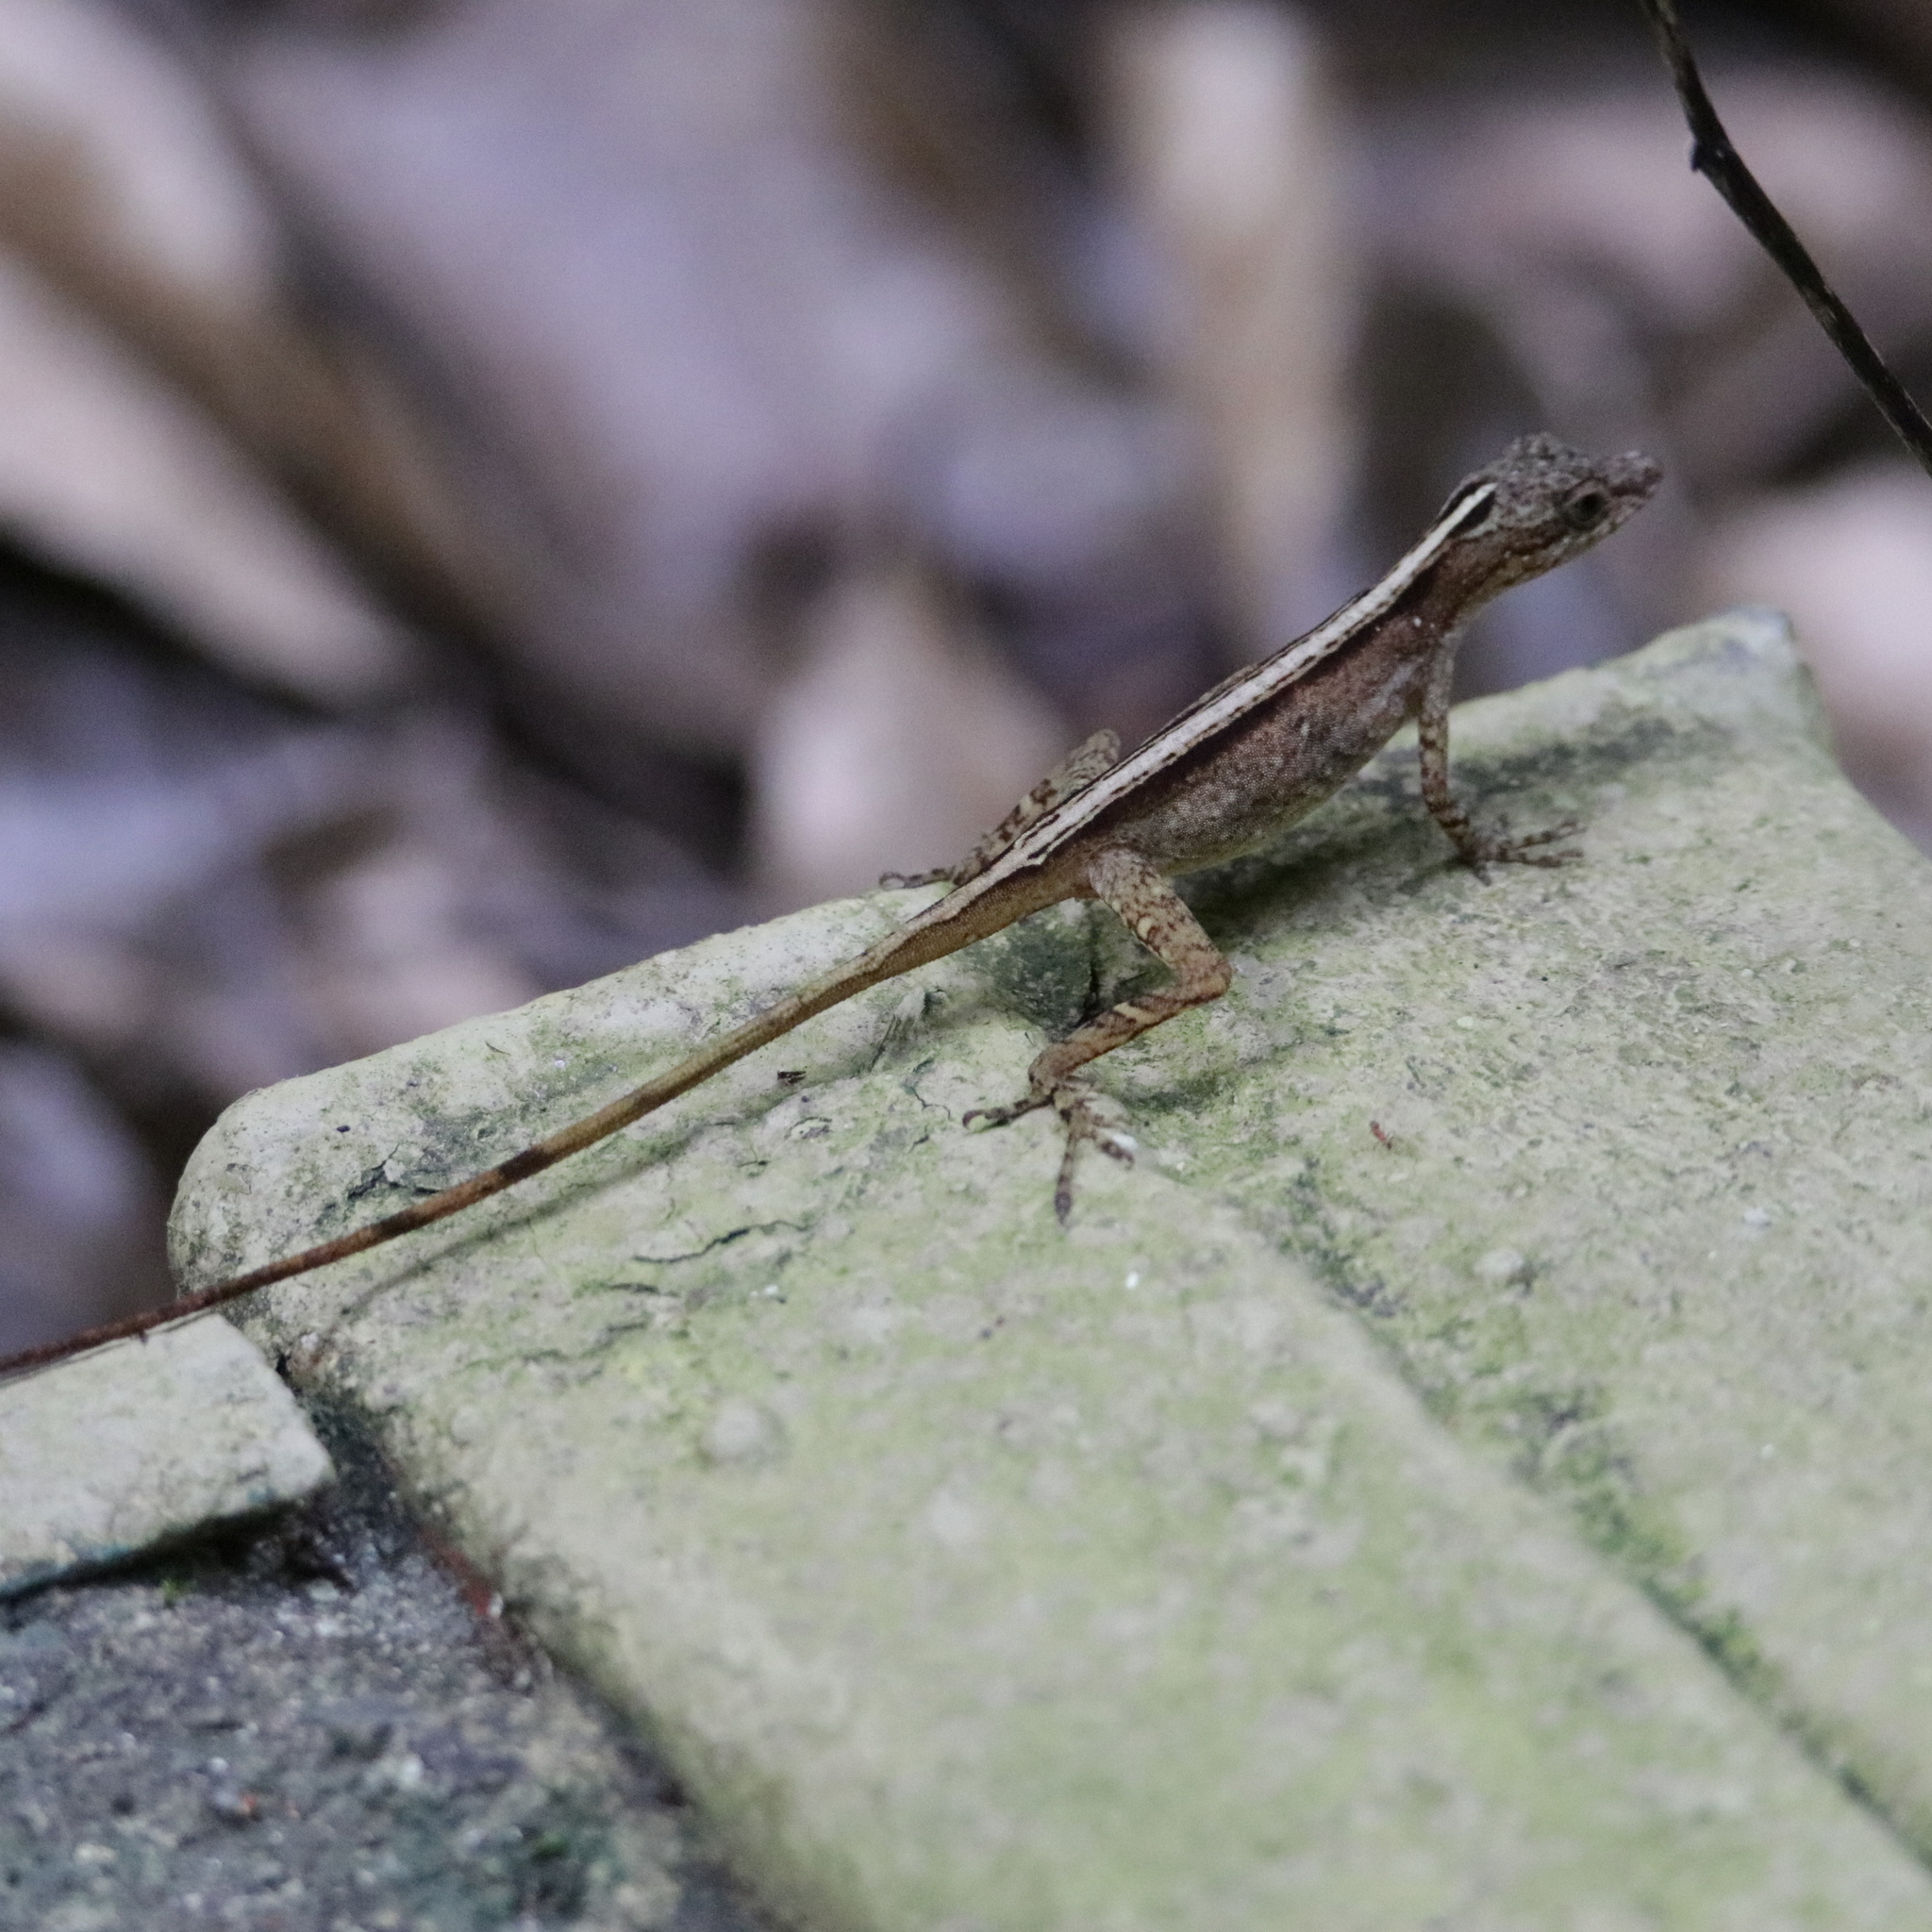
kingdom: Animalia
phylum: Chordata
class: Squamata
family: Dactyloidae
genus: Anolis
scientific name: Anolis apletophallus
